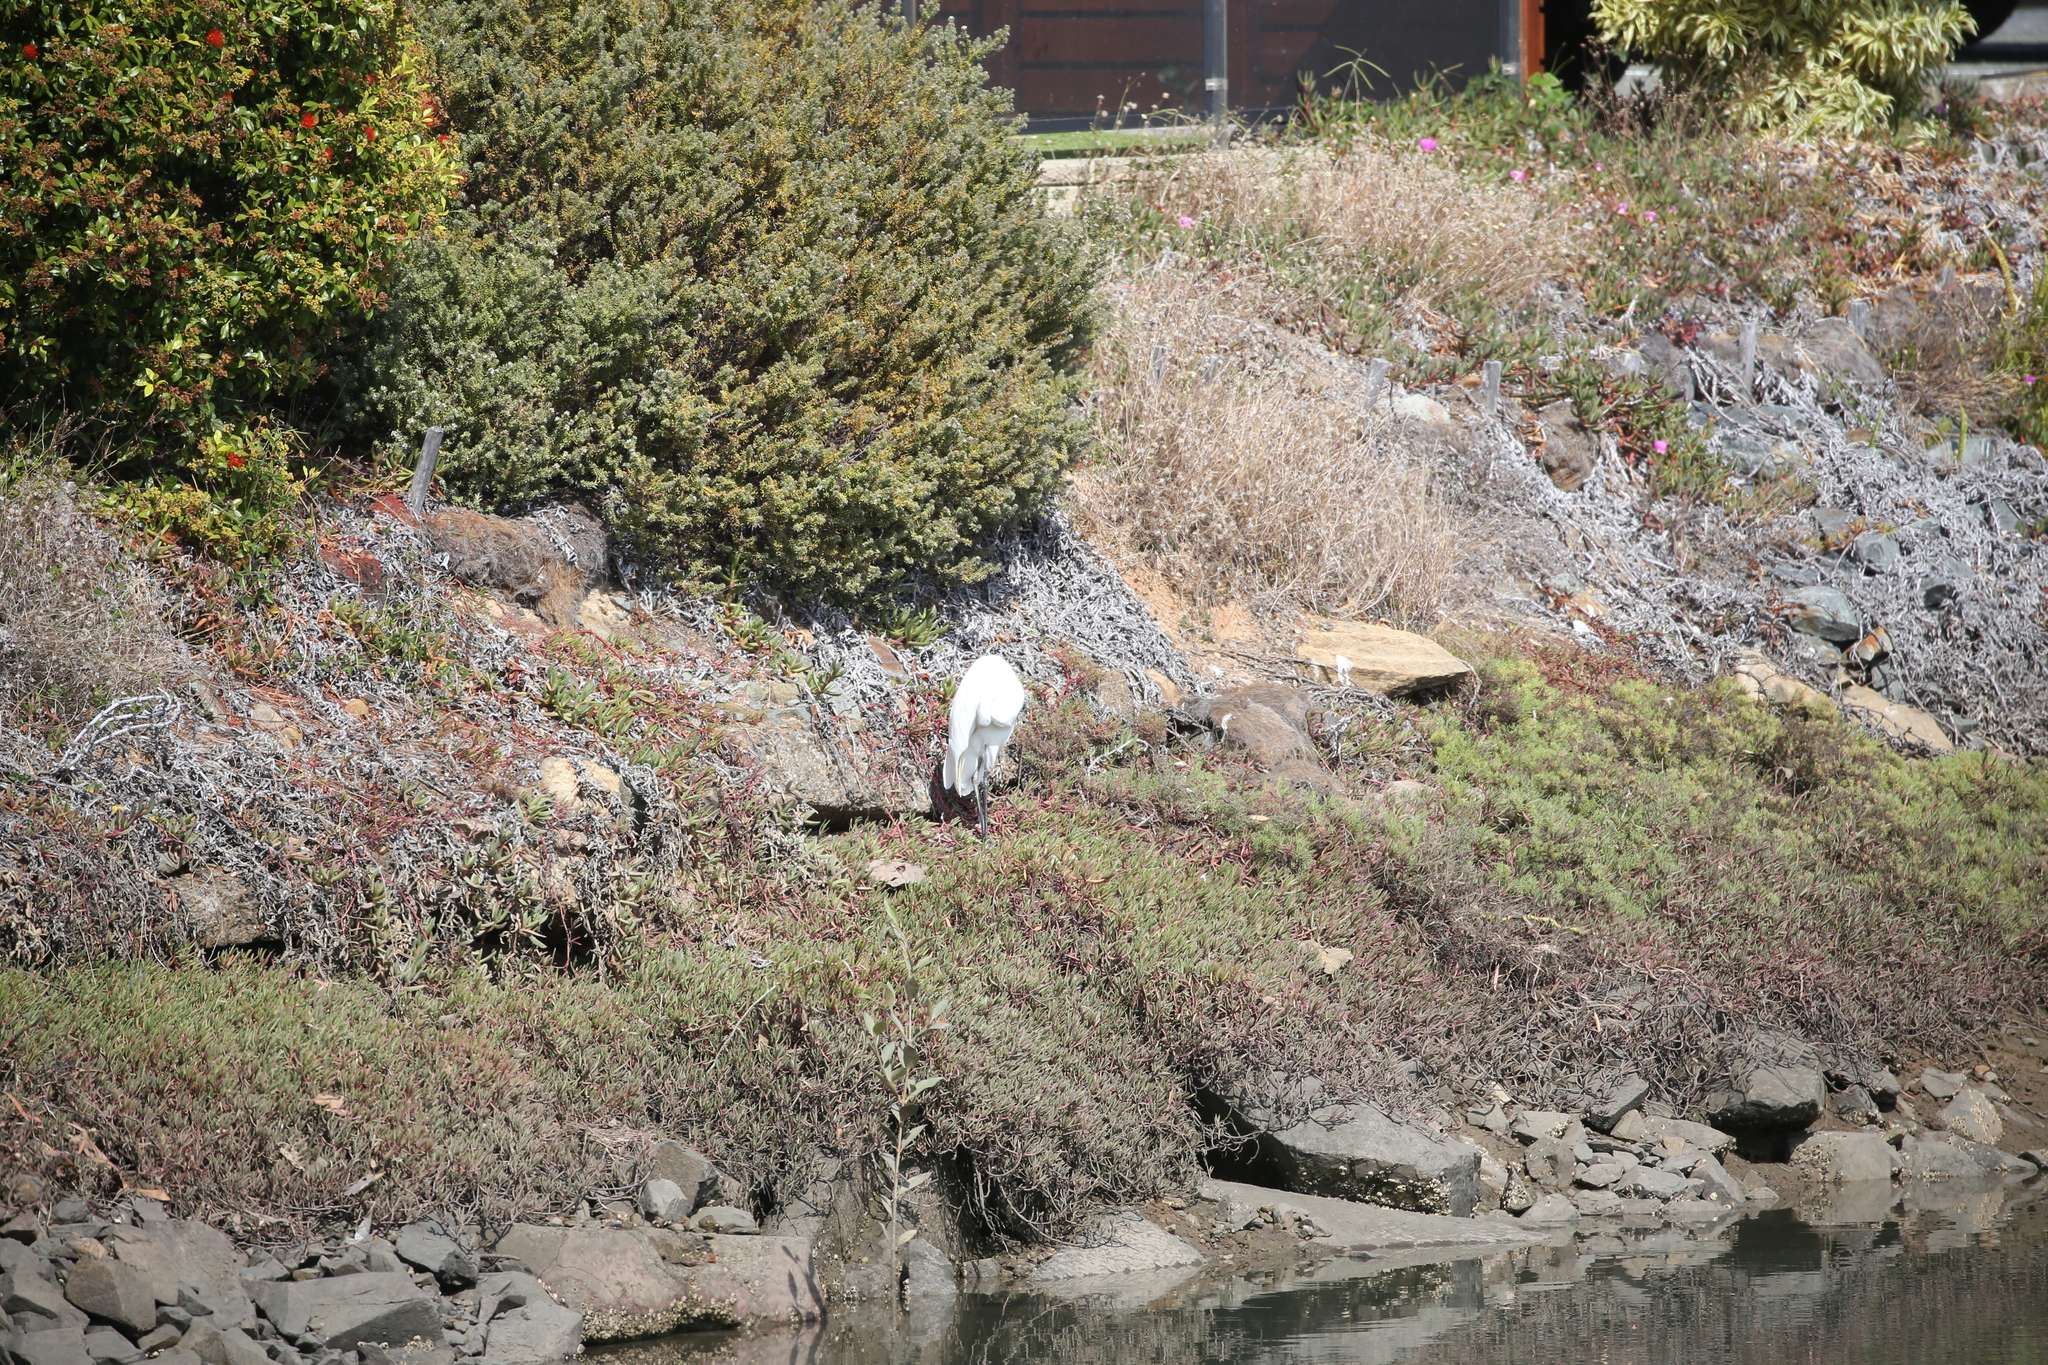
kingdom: Animalia
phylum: Chordata
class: Aves
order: Pelecaniformes
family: Ardeidae
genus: Ardea
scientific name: Ardea alba
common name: Great egret
